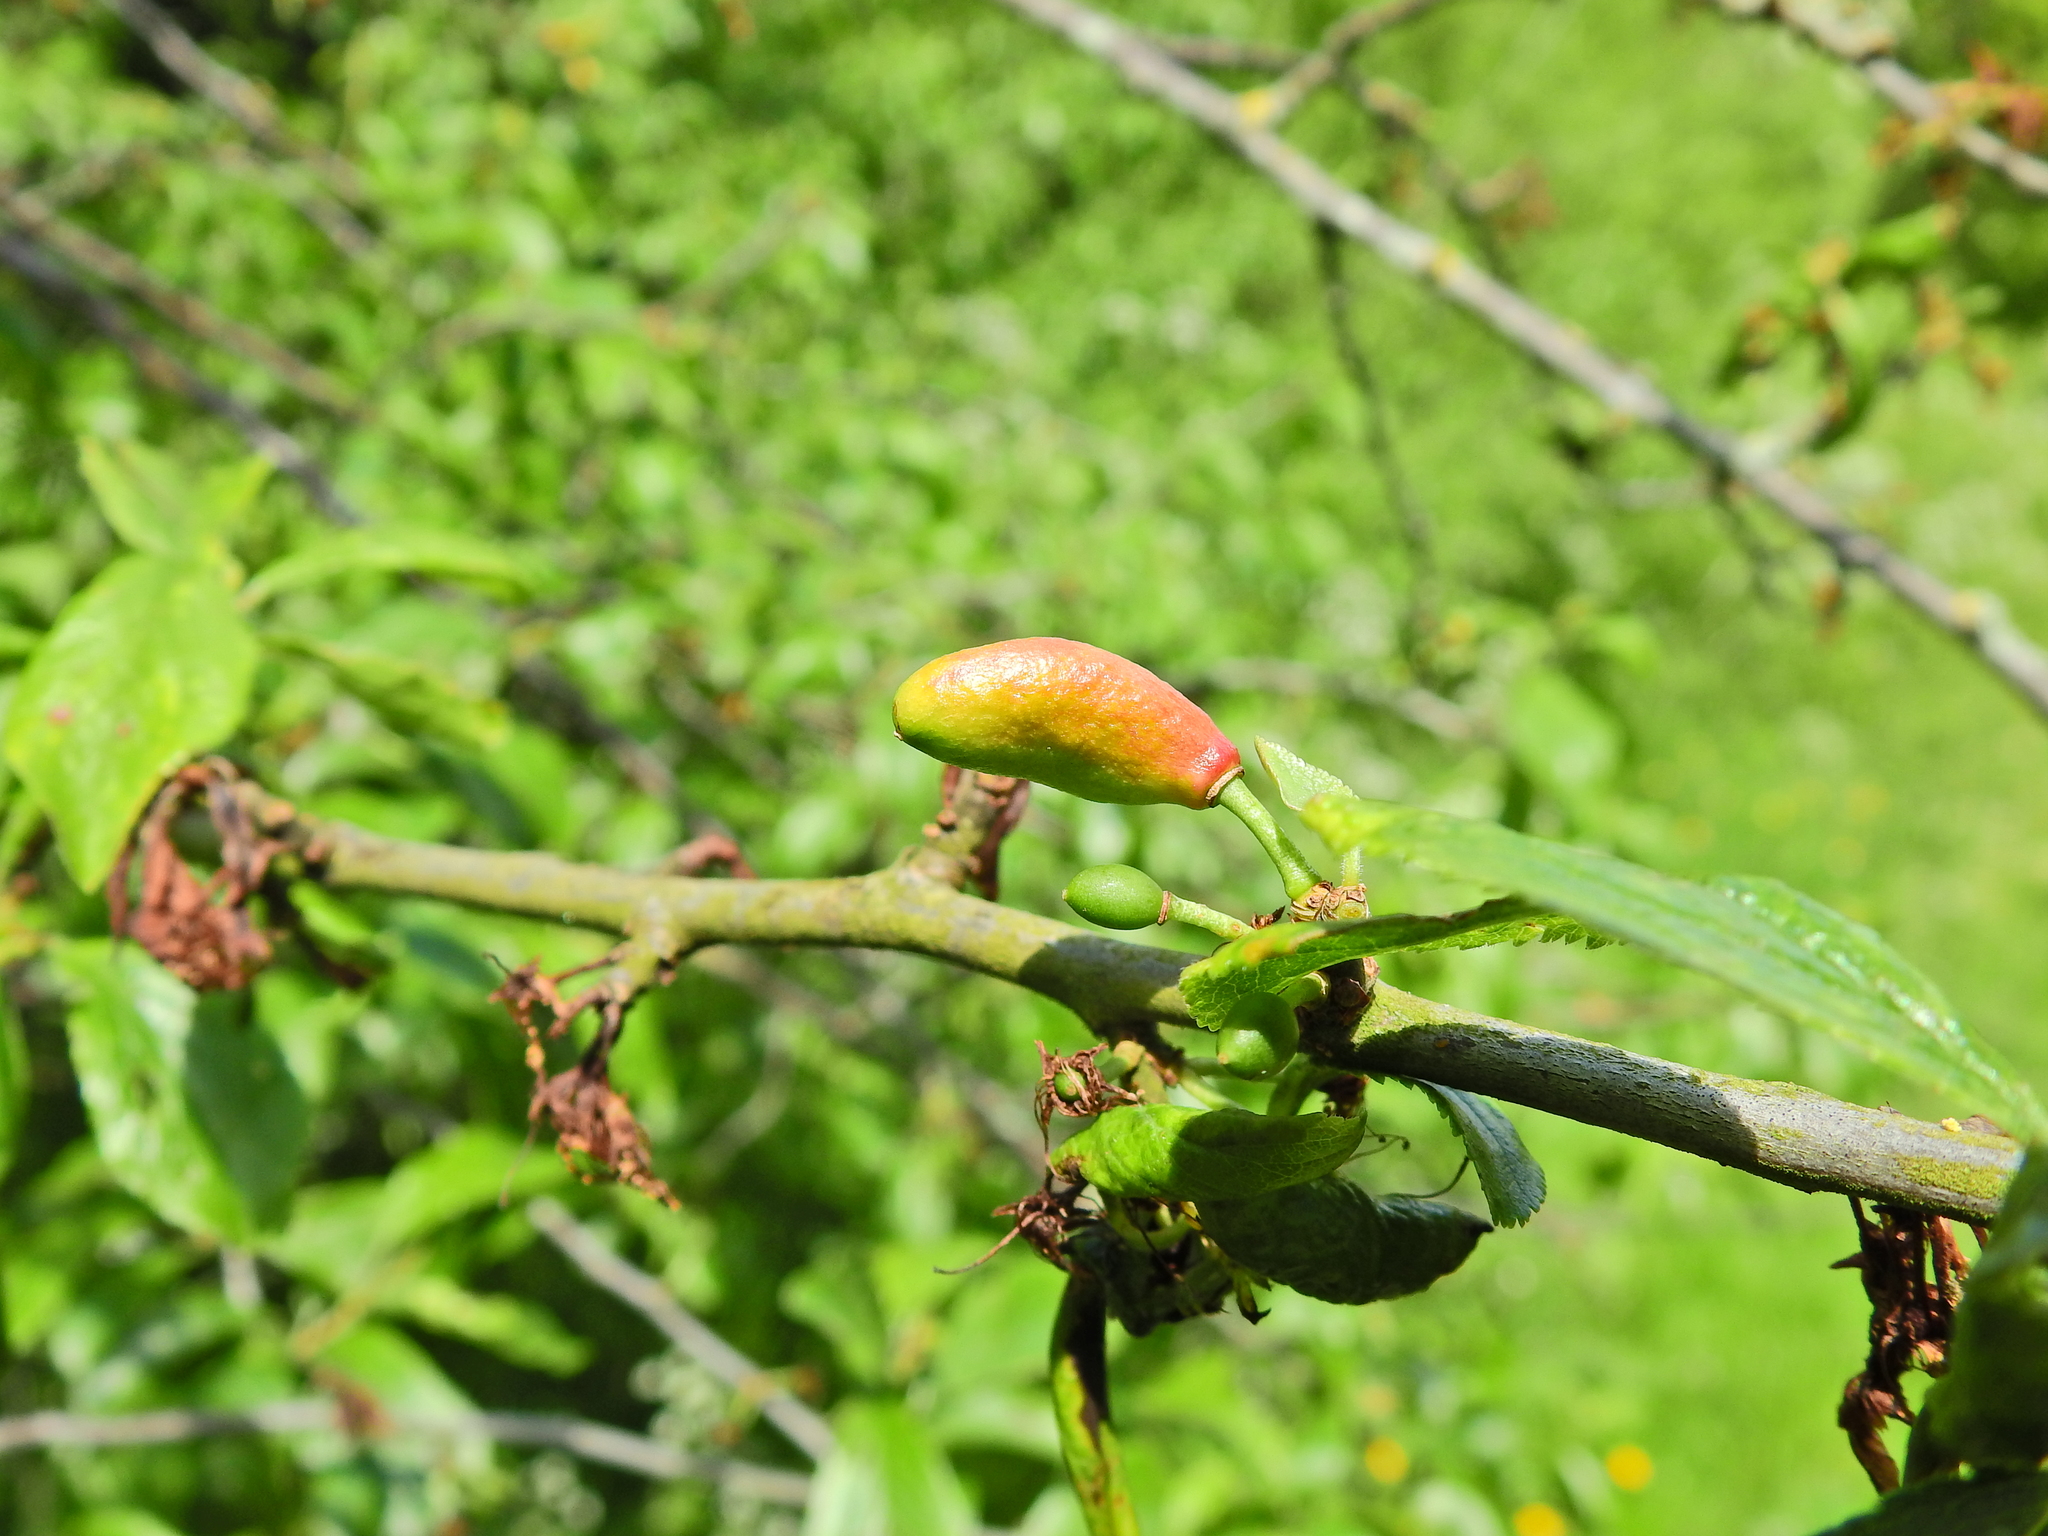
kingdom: Fungi
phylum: Ascomycota
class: Taphrinomycetes
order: Taphrinales
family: Taphrinaceae
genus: Taphrina
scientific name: Taphrina pruni
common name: Pocket plum
